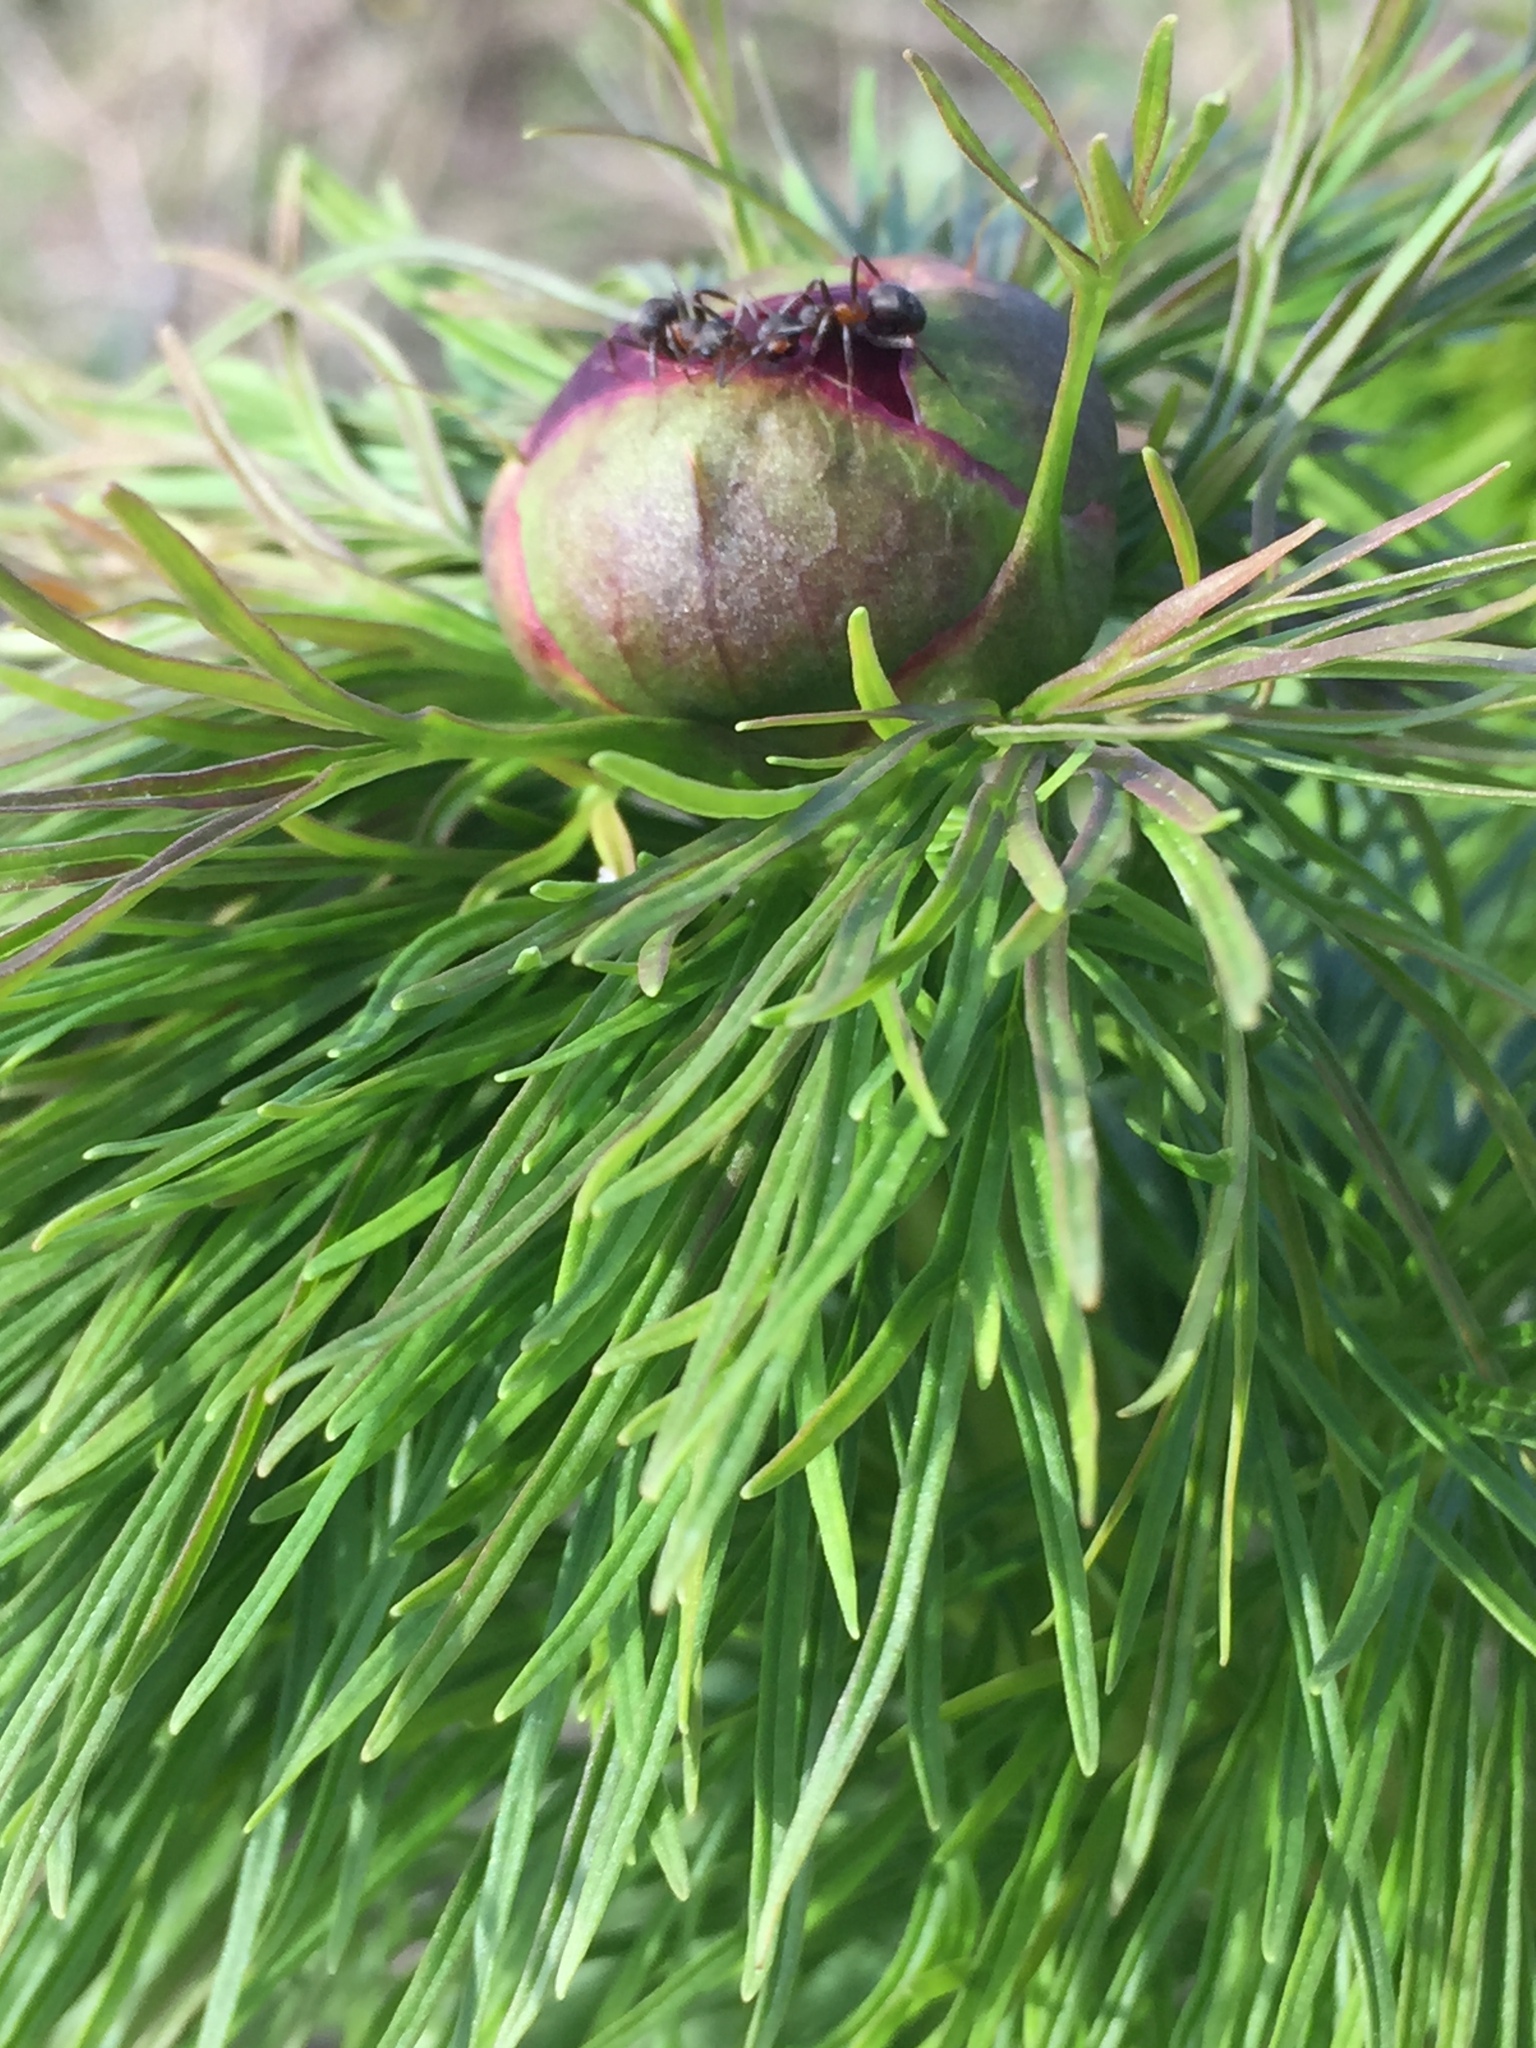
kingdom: Plantae
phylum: Tracheophyta
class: Magnoliopsida
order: Saxifragales
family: Paeoniaceae
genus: Paeonia
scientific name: Paeonia tenuifolia
